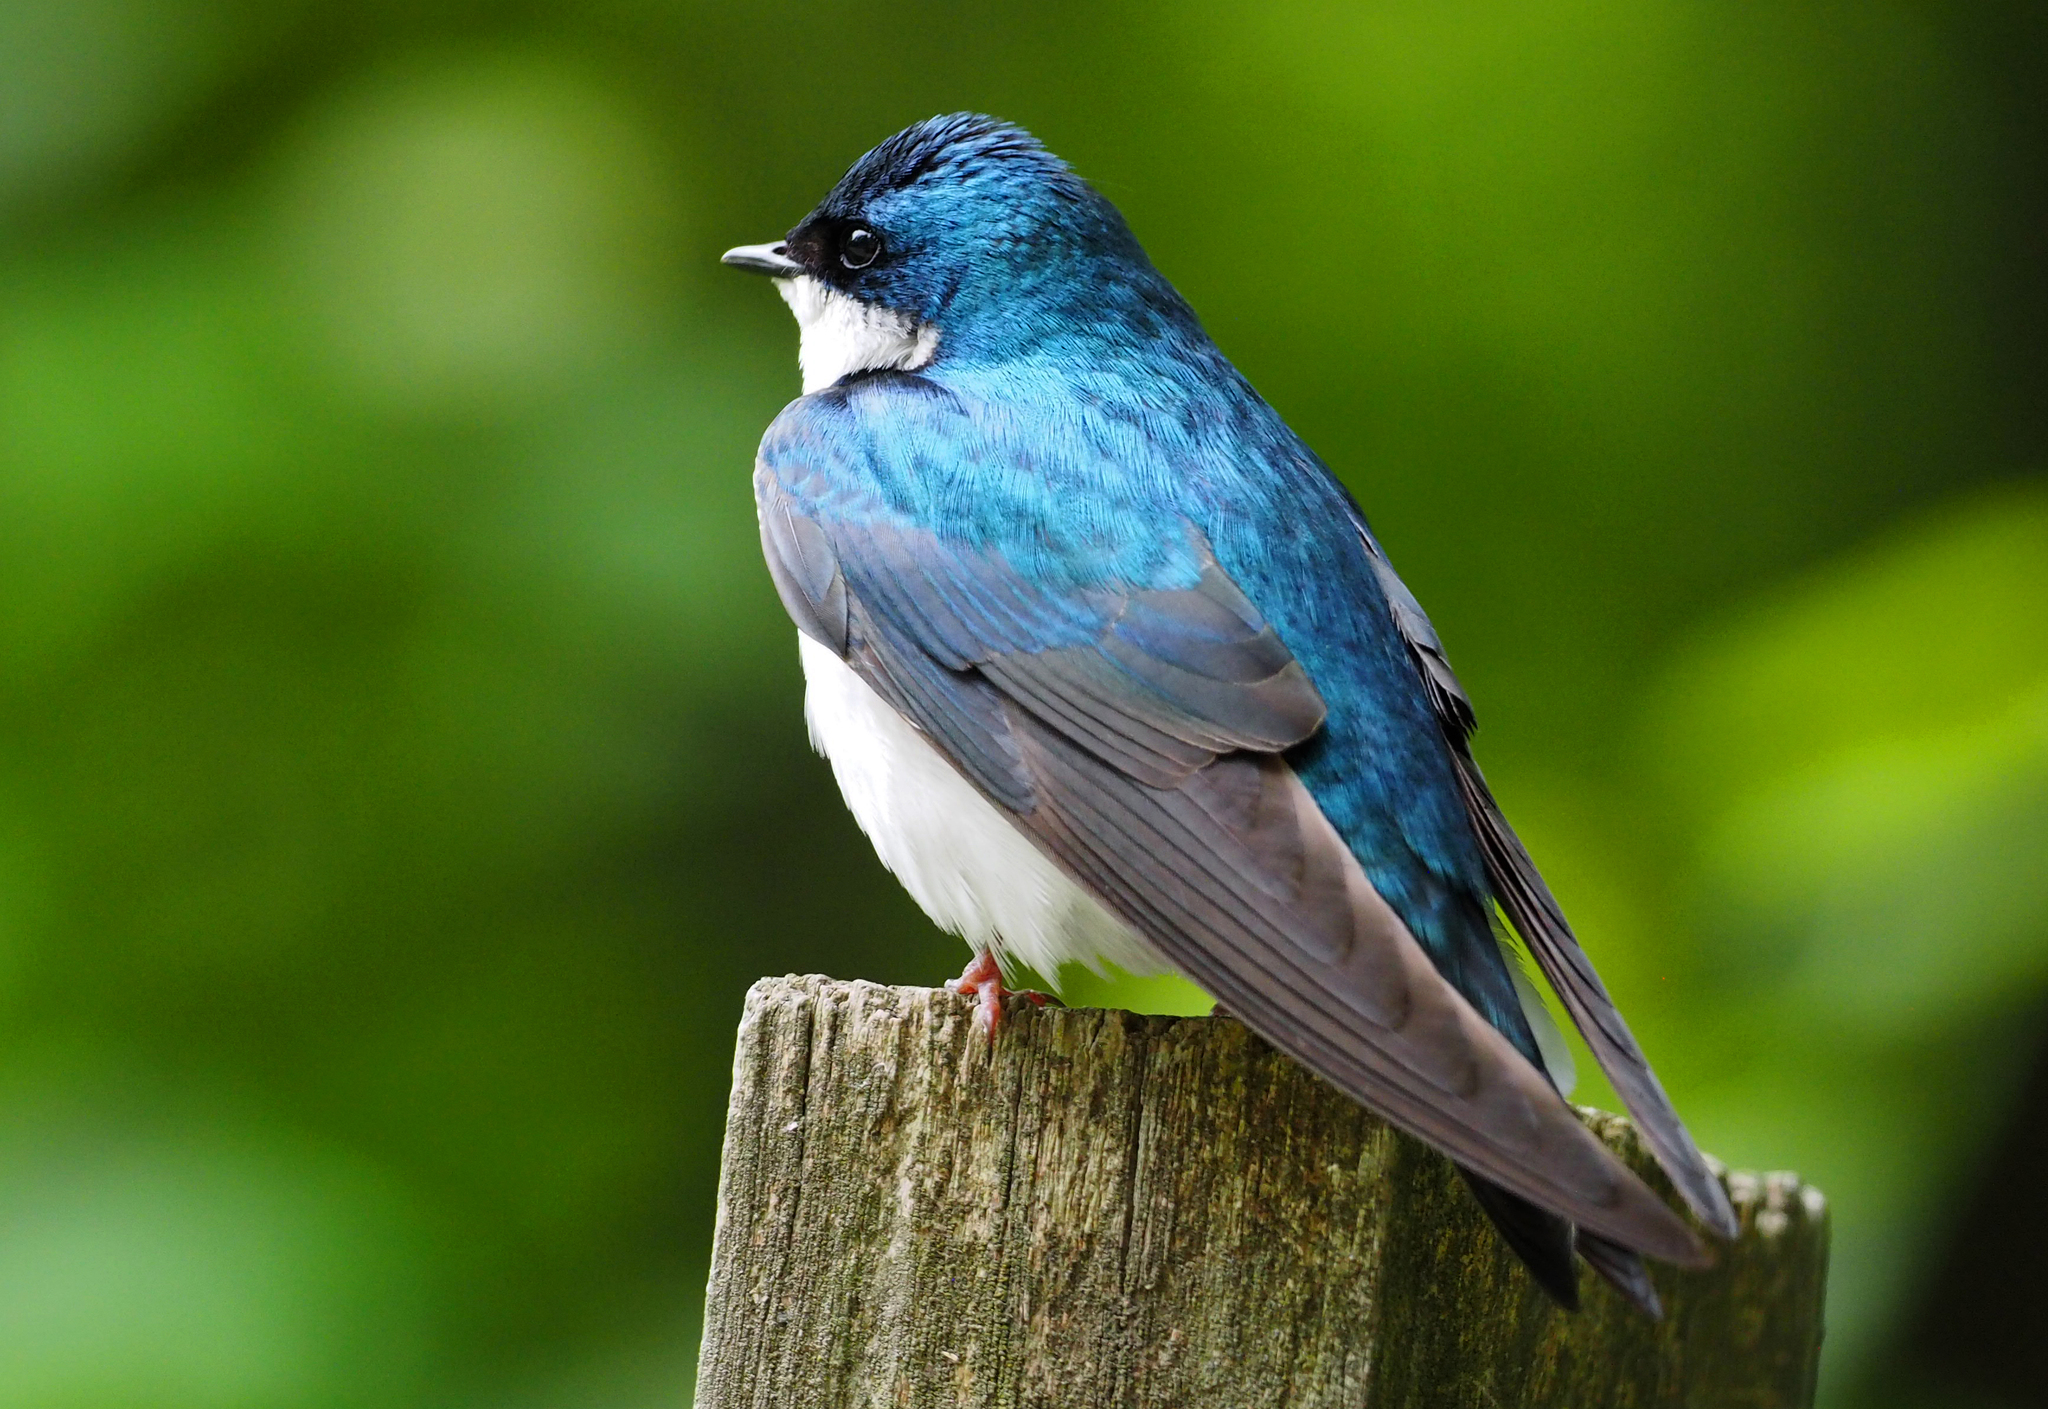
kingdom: Animalia
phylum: Chordata
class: Aves
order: Passeriformes
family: Hirundinidae
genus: Tachycineta
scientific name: Tachycineta bicolor
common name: Tree swallow
